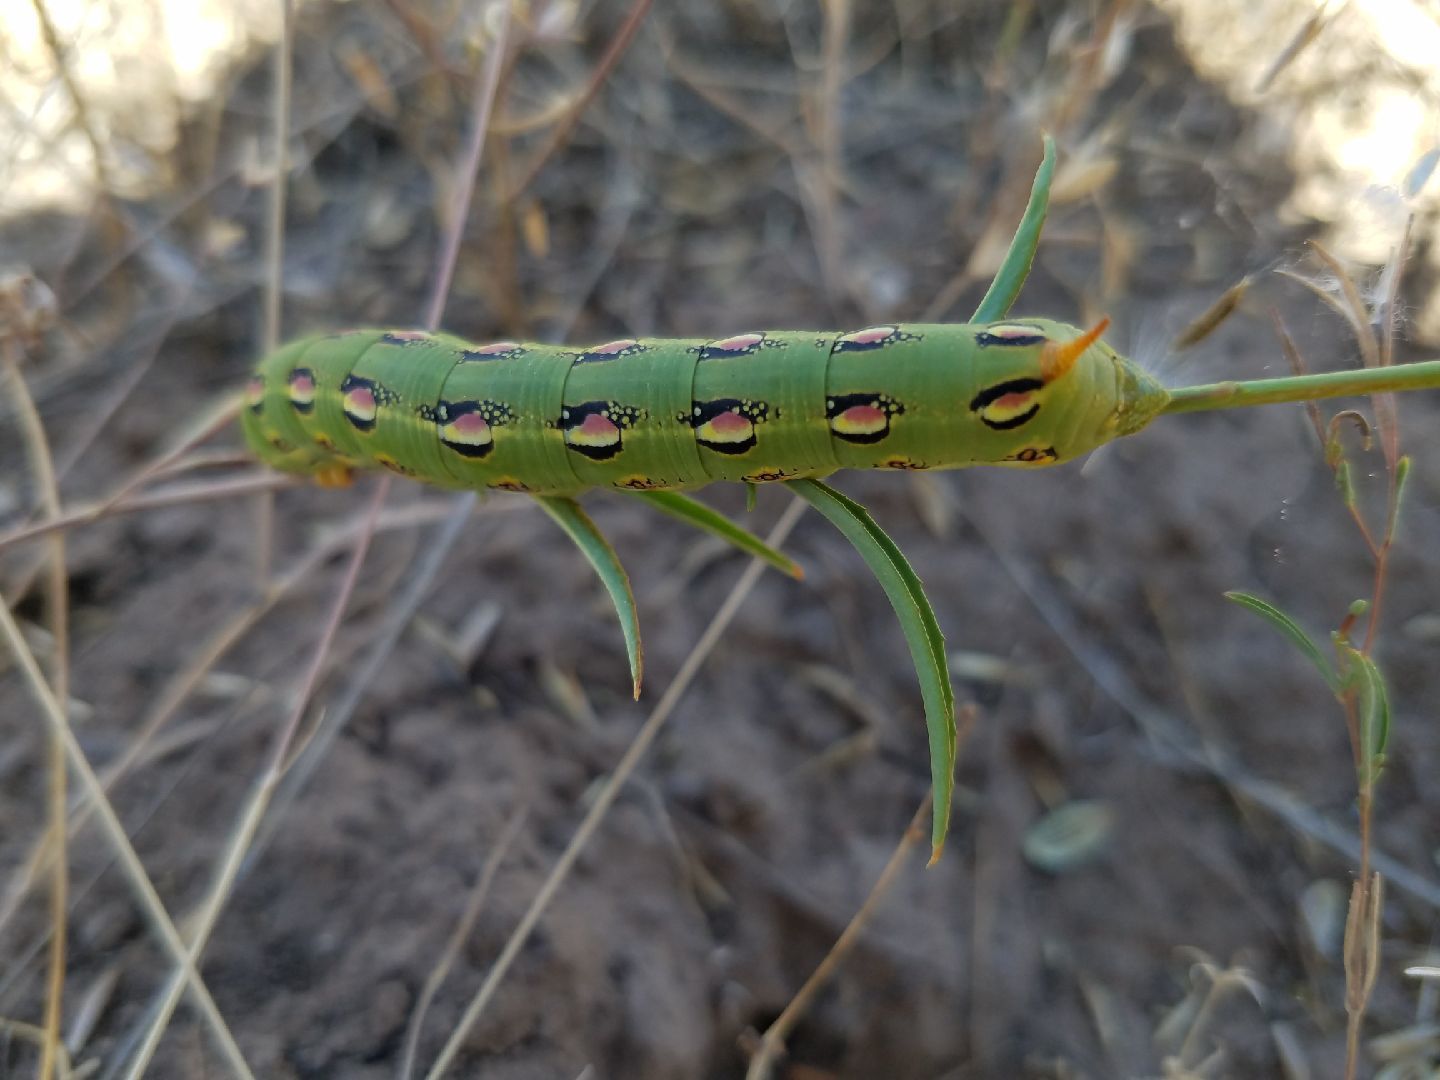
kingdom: Animalia
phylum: Arthropoda
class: Insecta
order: Lepidoptera
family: Sphingidae
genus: Hyles
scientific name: Hyles lineata
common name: White-lined sphinx
